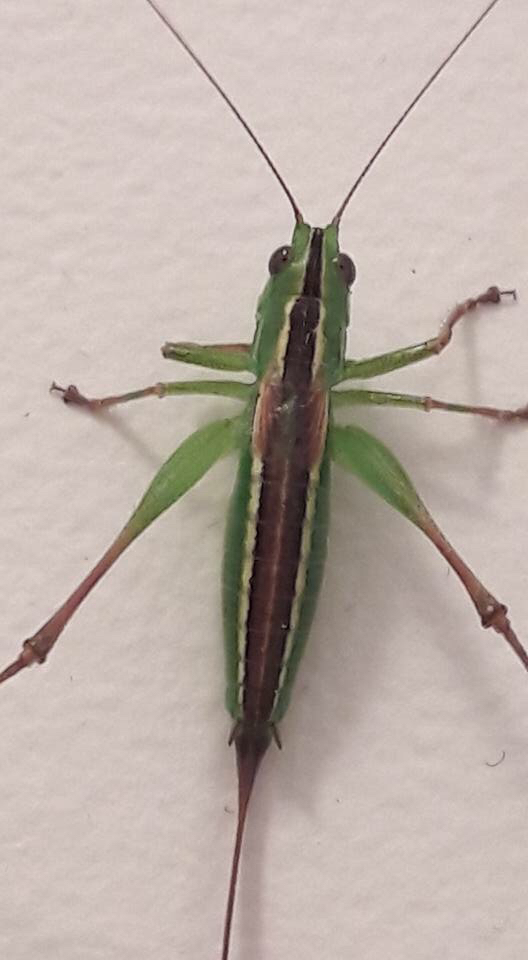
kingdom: Animalia
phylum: Arthropoda
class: Insecta
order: Orthoptera
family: Tettigoniidae
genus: Conocephalus
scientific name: Conocephalus bilineatus
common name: Small meadow katydid
